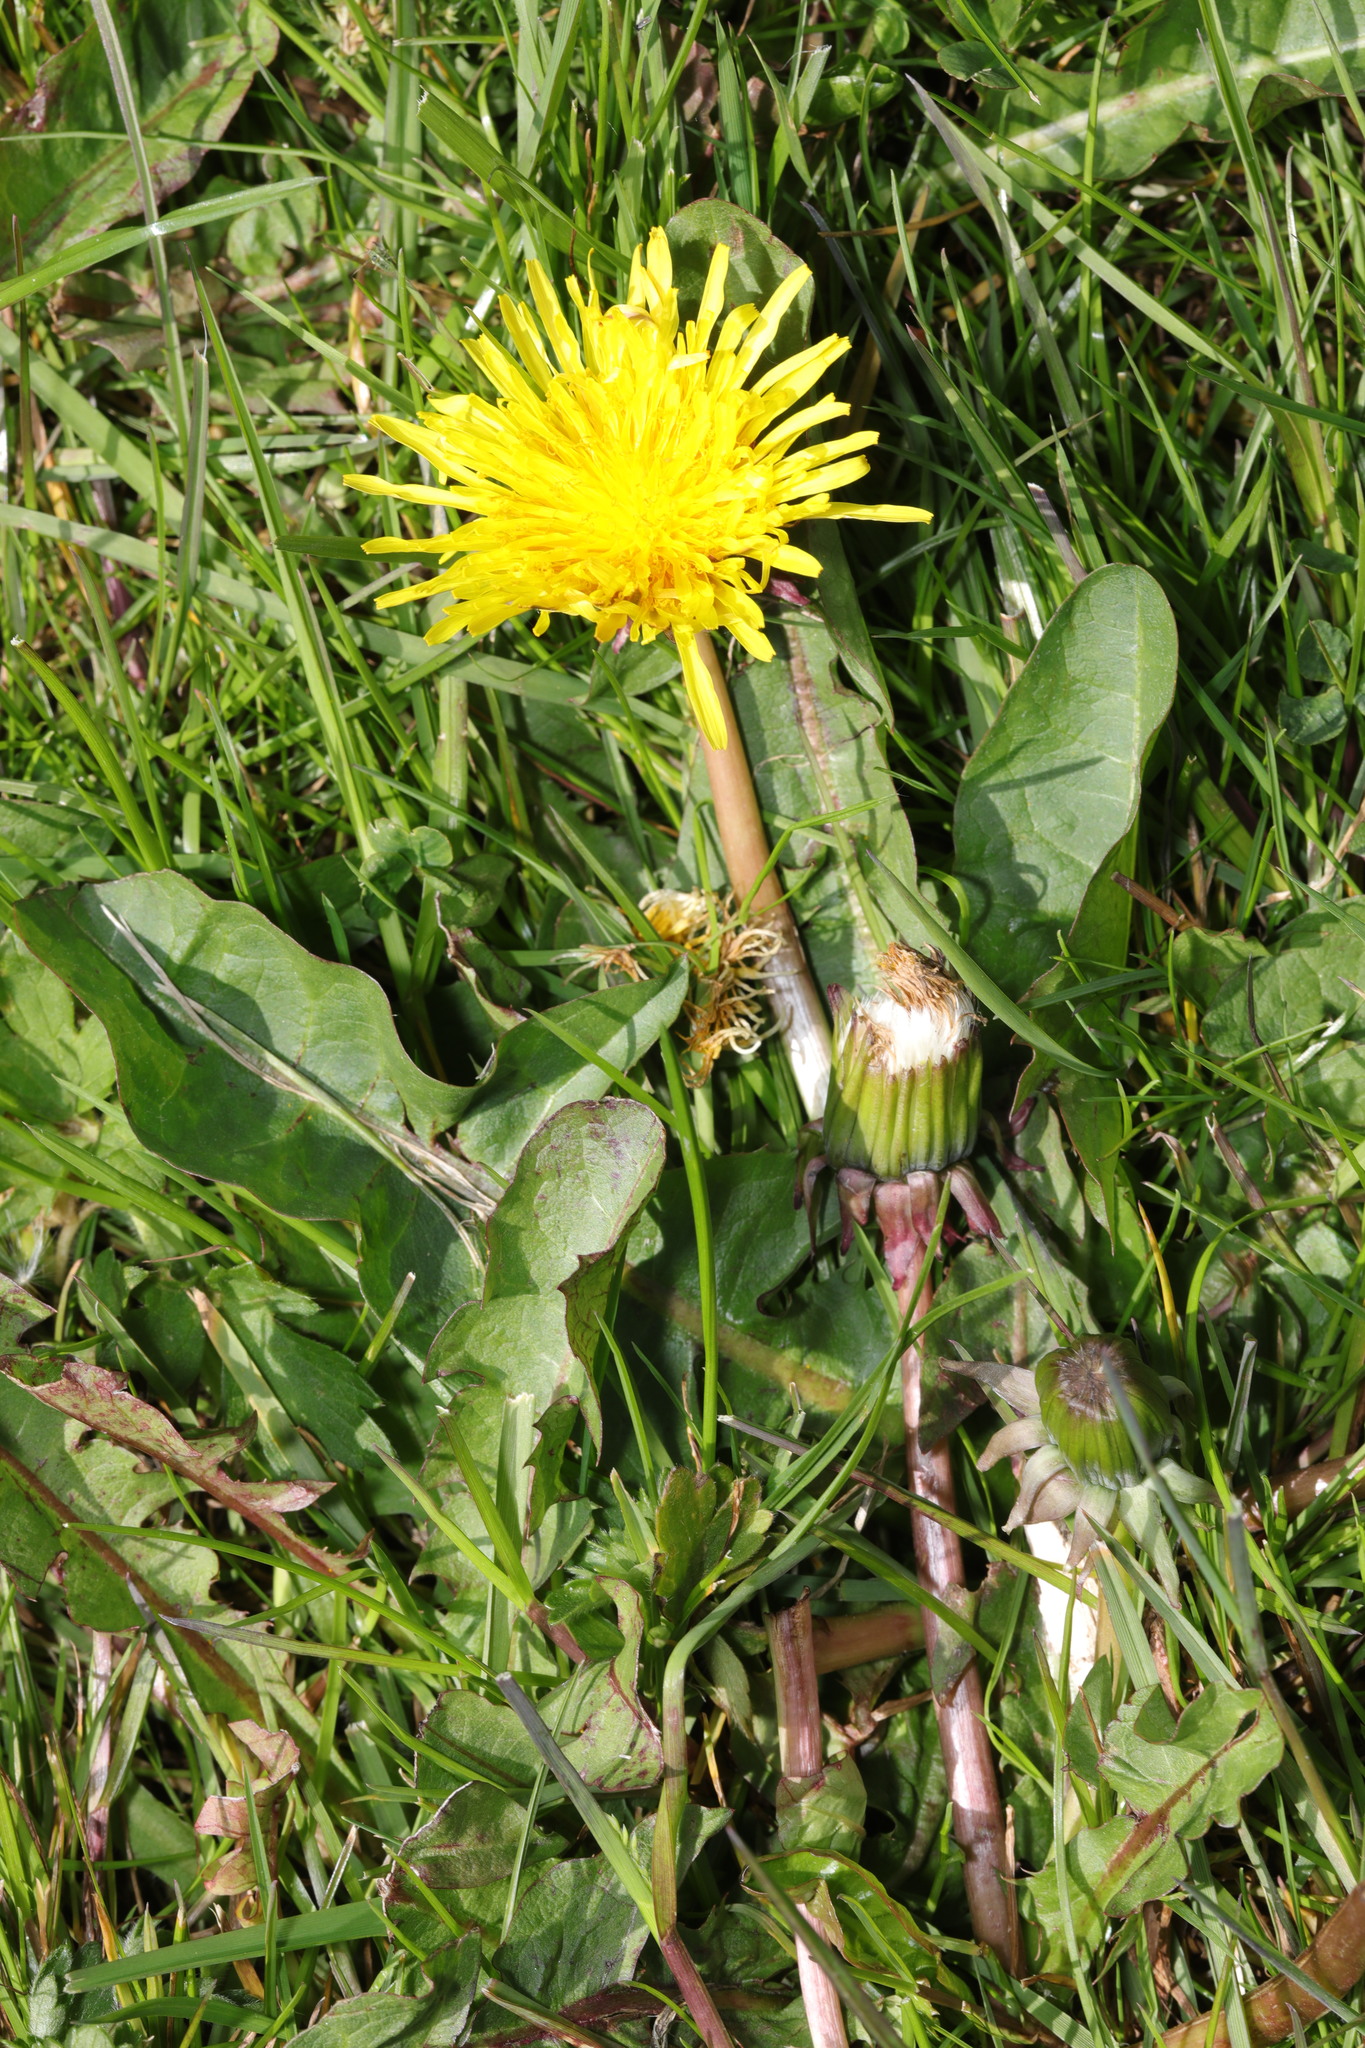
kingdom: Plantae
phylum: Tracheophyta
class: Magnoliopsida
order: Asterales
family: Asteraceae
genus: Taraxacum
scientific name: Taraxacum officinale
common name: Common dandelion
